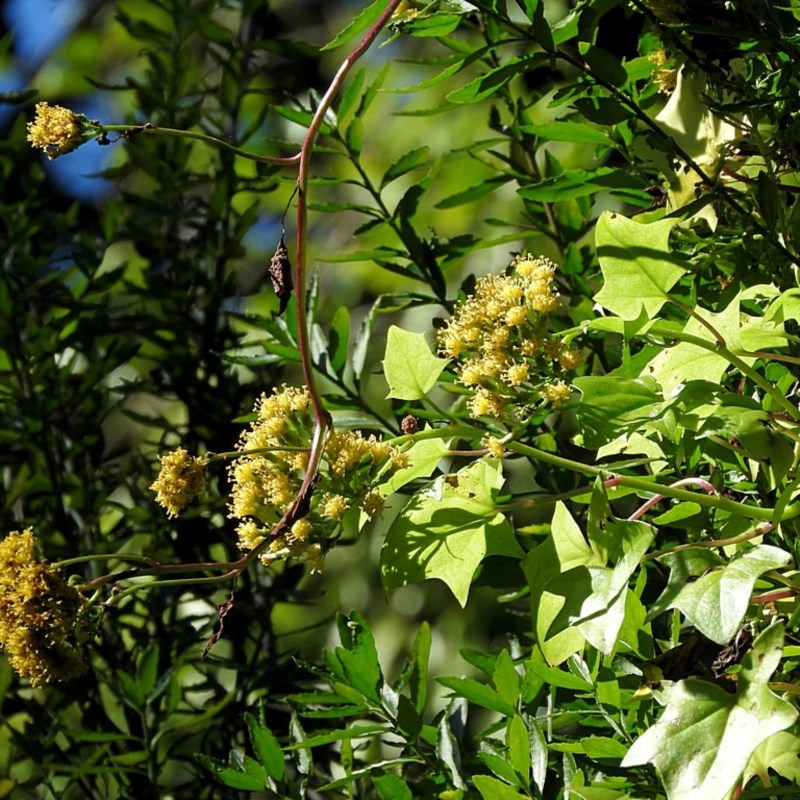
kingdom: Plantae
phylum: Tracheophyta
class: Magnoliopsida
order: Asterales
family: Asteraceae
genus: Delairea
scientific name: Delairea odorata
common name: Cape-ivy
